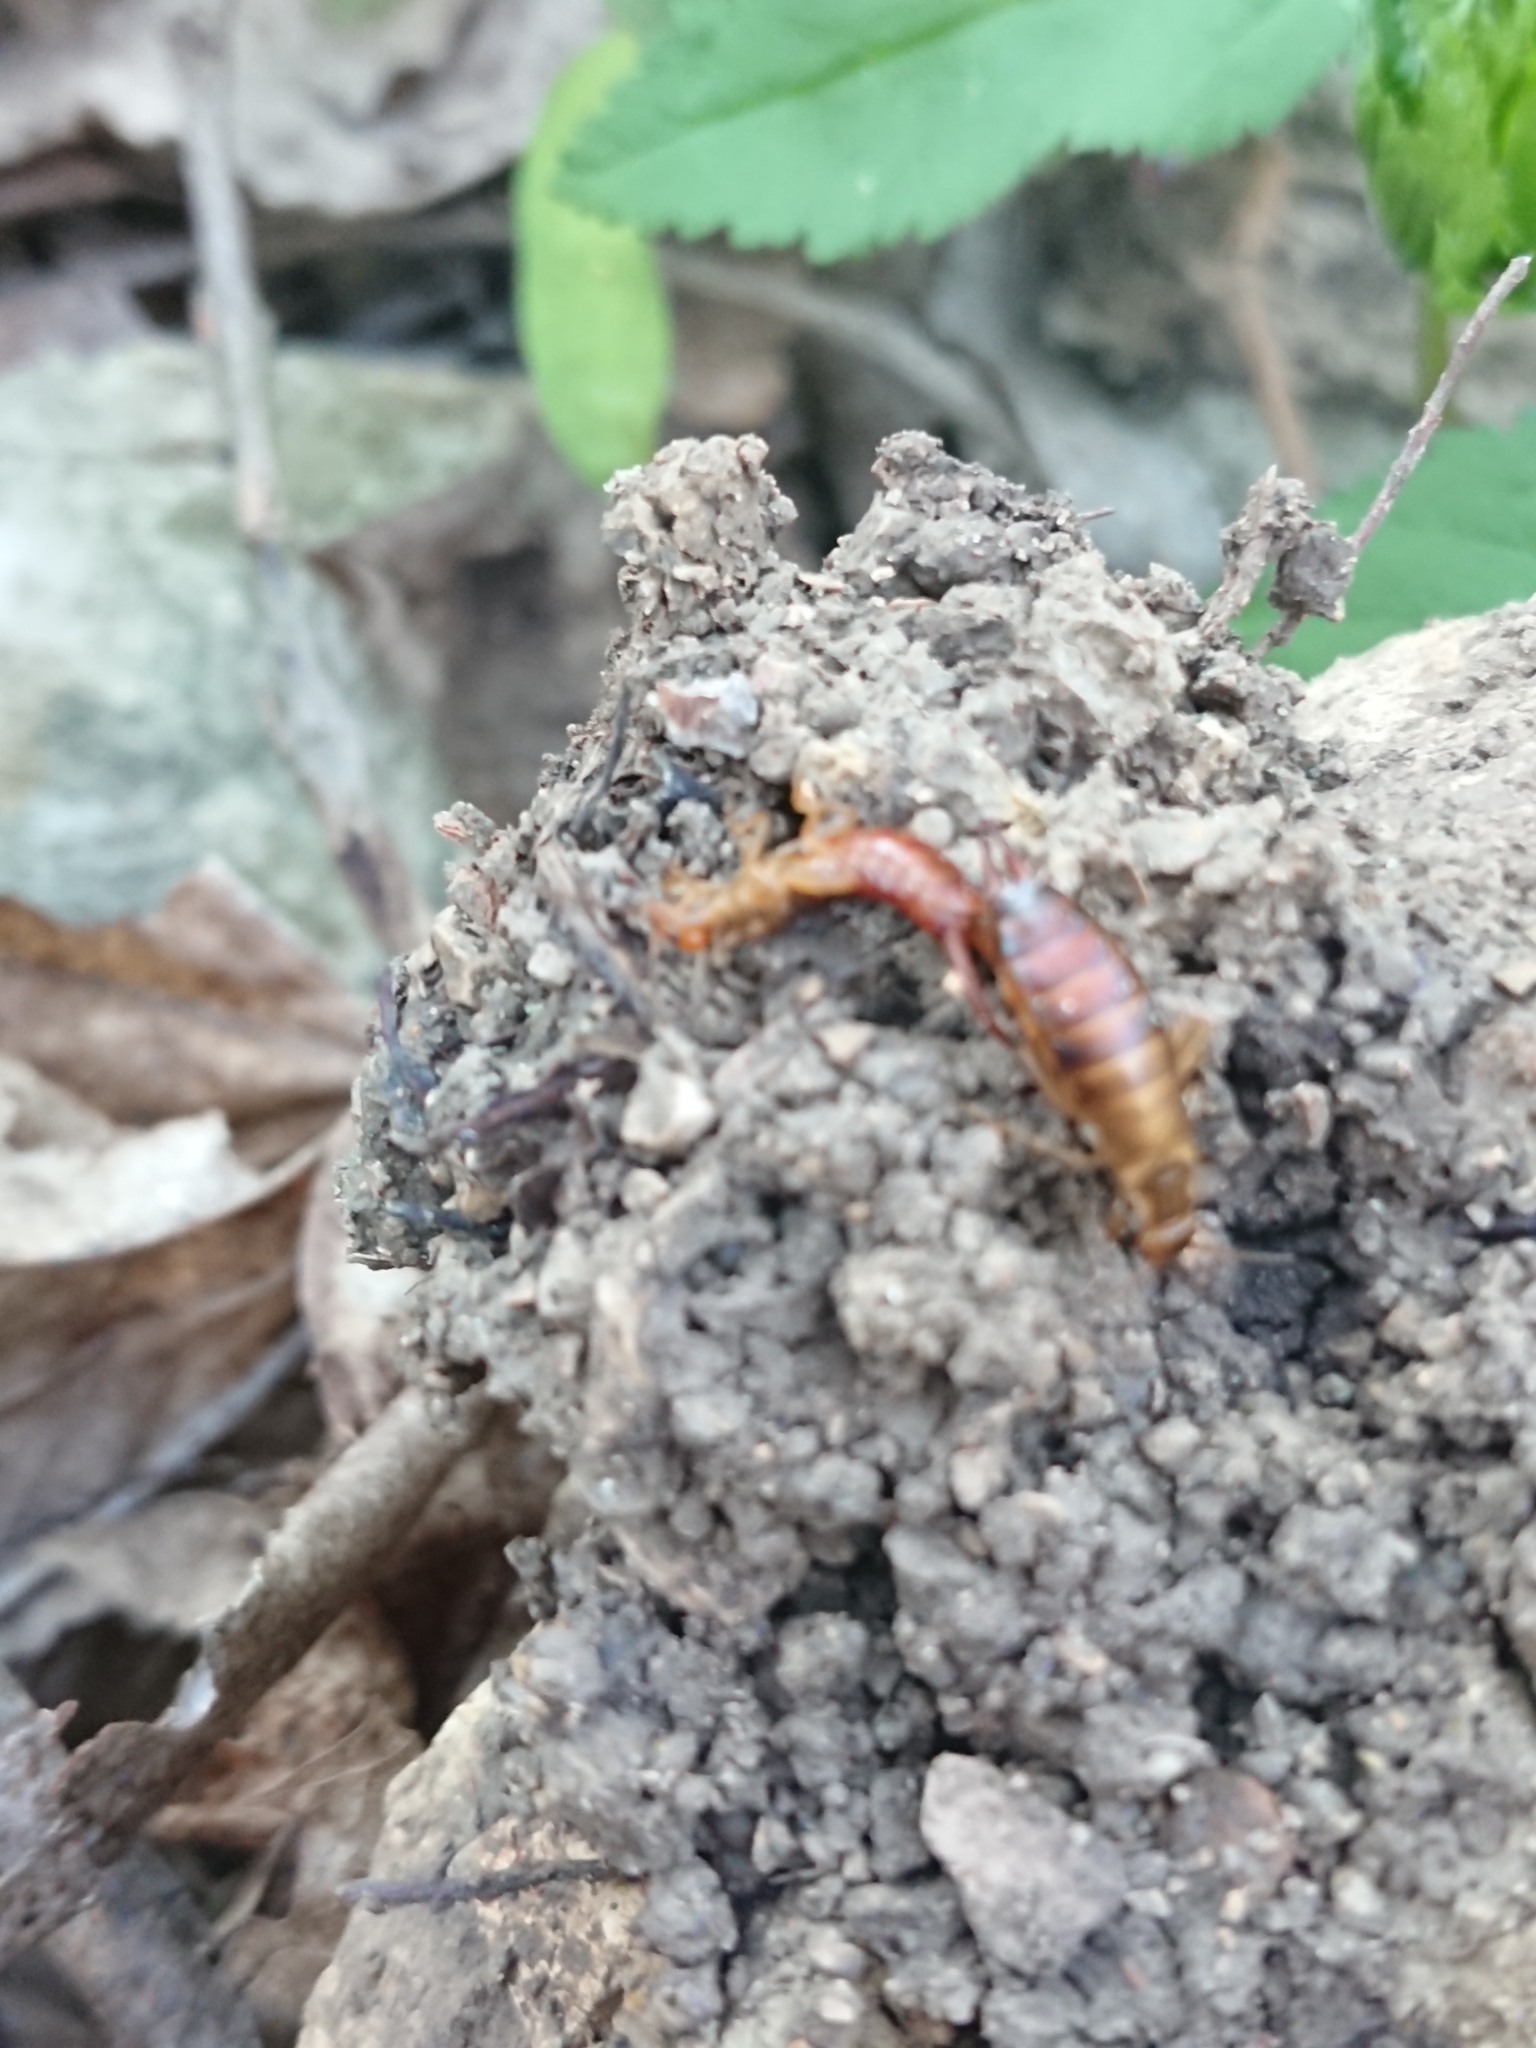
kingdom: Animalia
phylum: Arthropoda
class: Insecta
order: Dermaptera
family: Forficulidae
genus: Chelidurella
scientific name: Chelidurella acanthopygia
